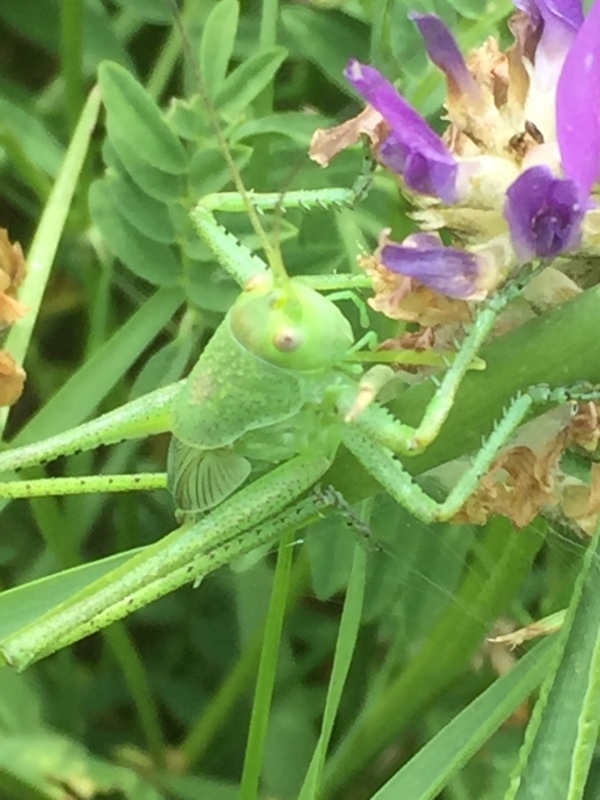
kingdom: Animalia
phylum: Arthropoda
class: Insecta
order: Orthoptera
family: Tettigoniidae
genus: Tettigonia
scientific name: Tettigonia caudata
